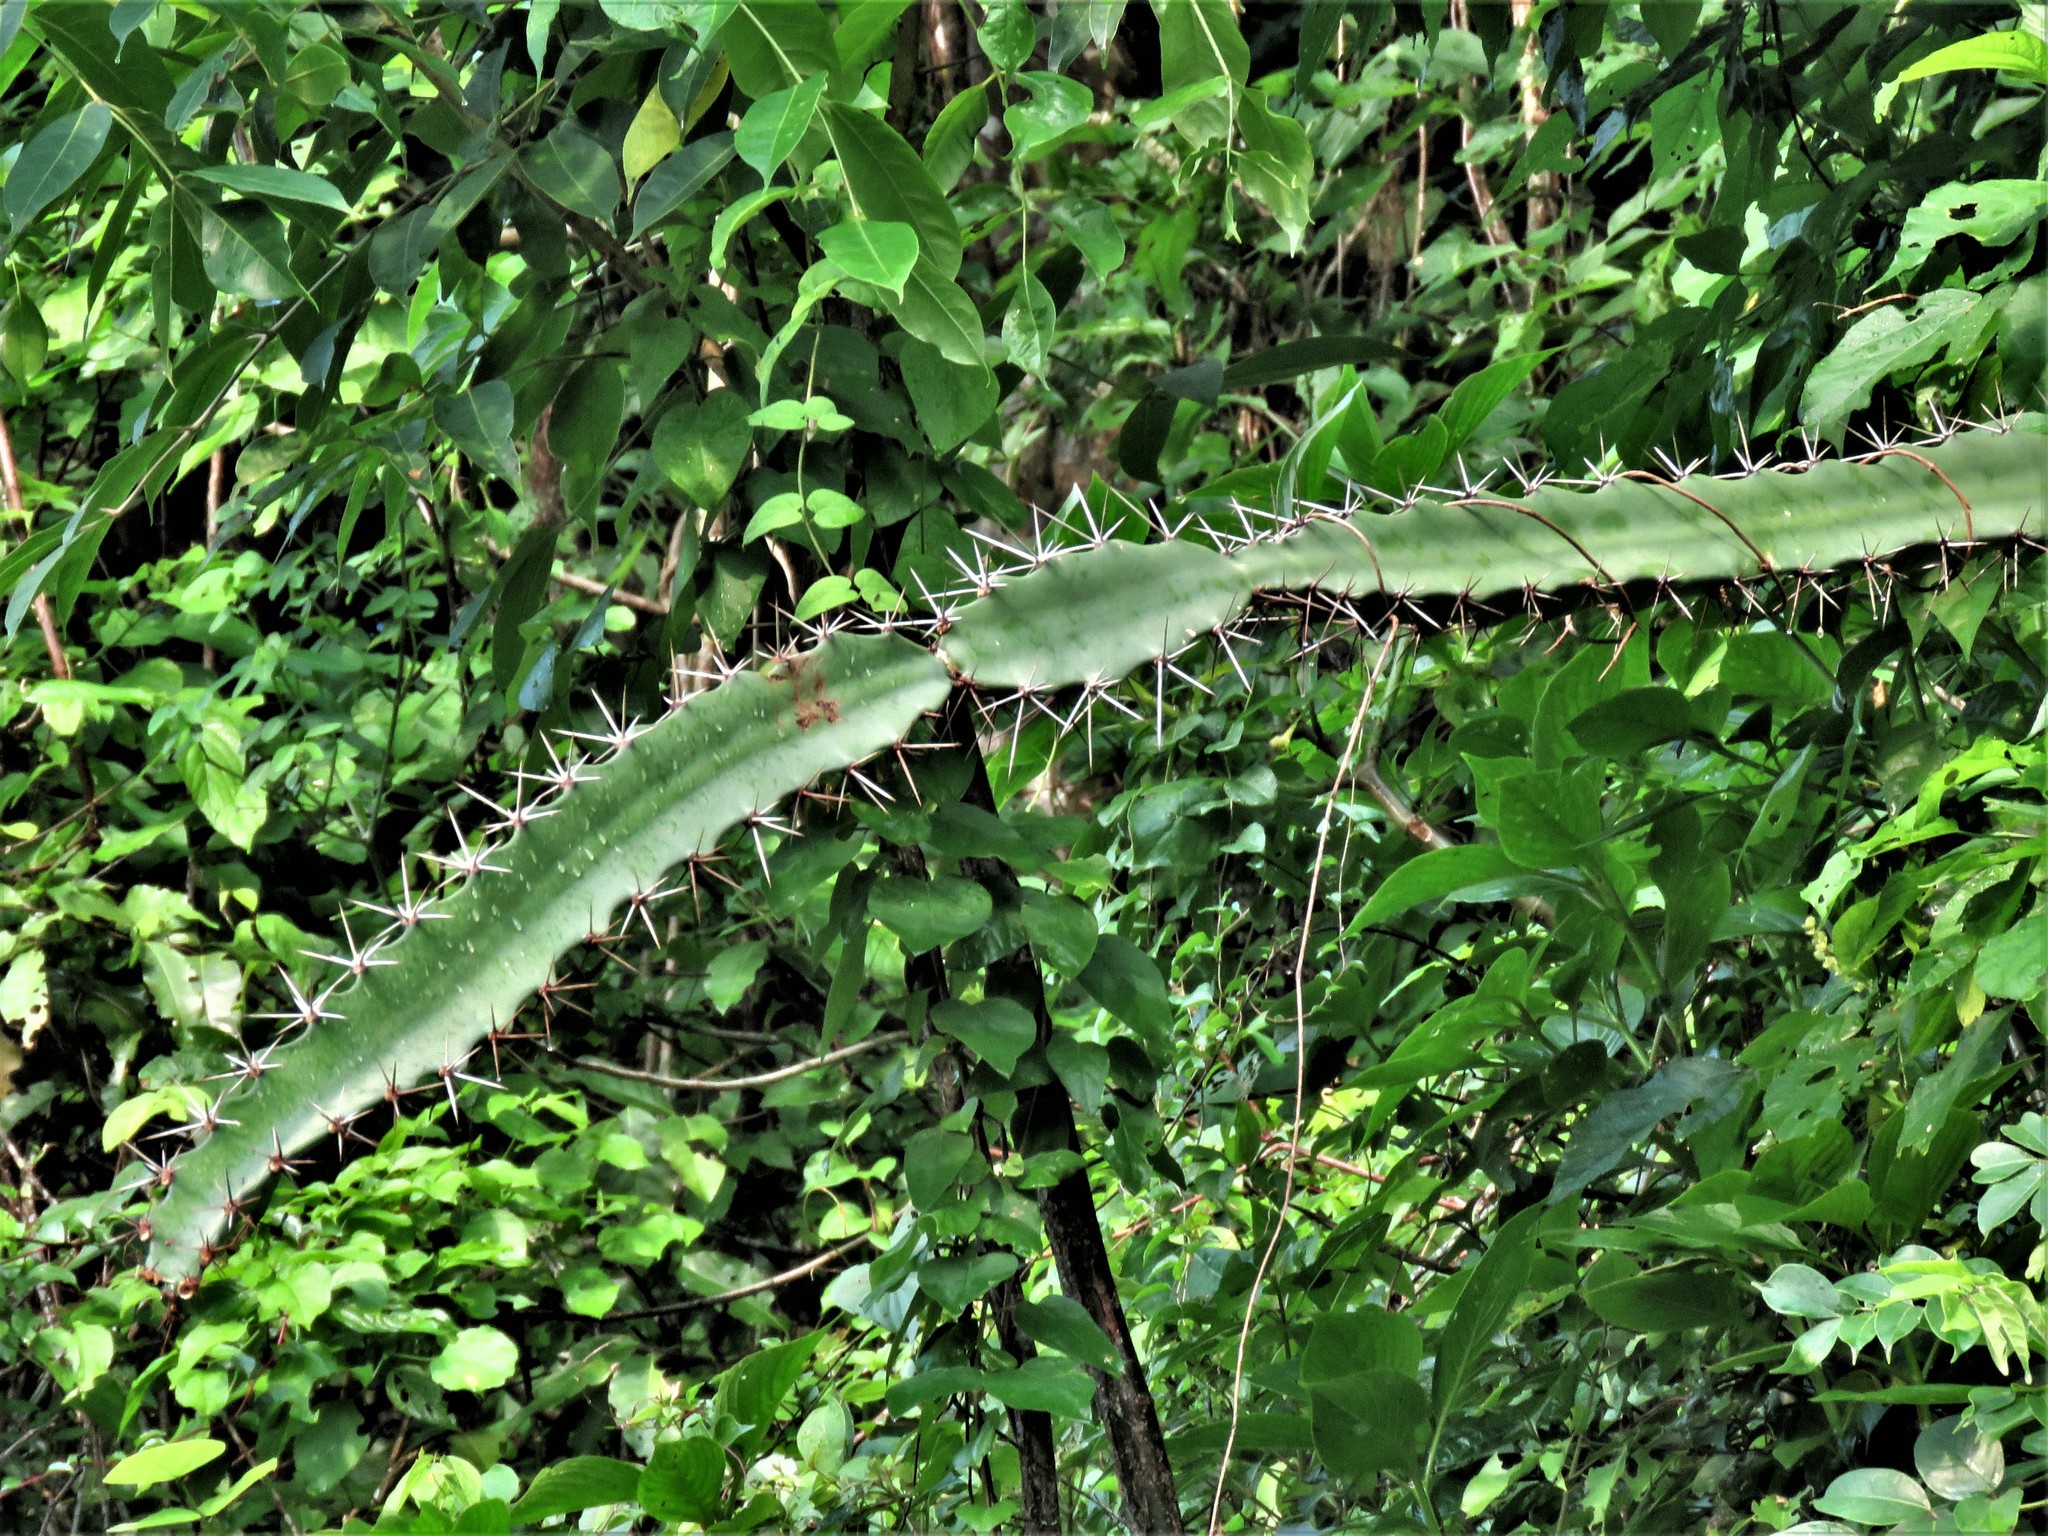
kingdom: Plantae
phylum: Tracheophyta
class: Magnoliopsida
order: Caryophyllales
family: Cactaceae
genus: Acanthocereus
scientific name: Acanthocereus tetragonus
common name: Triangle cactus
